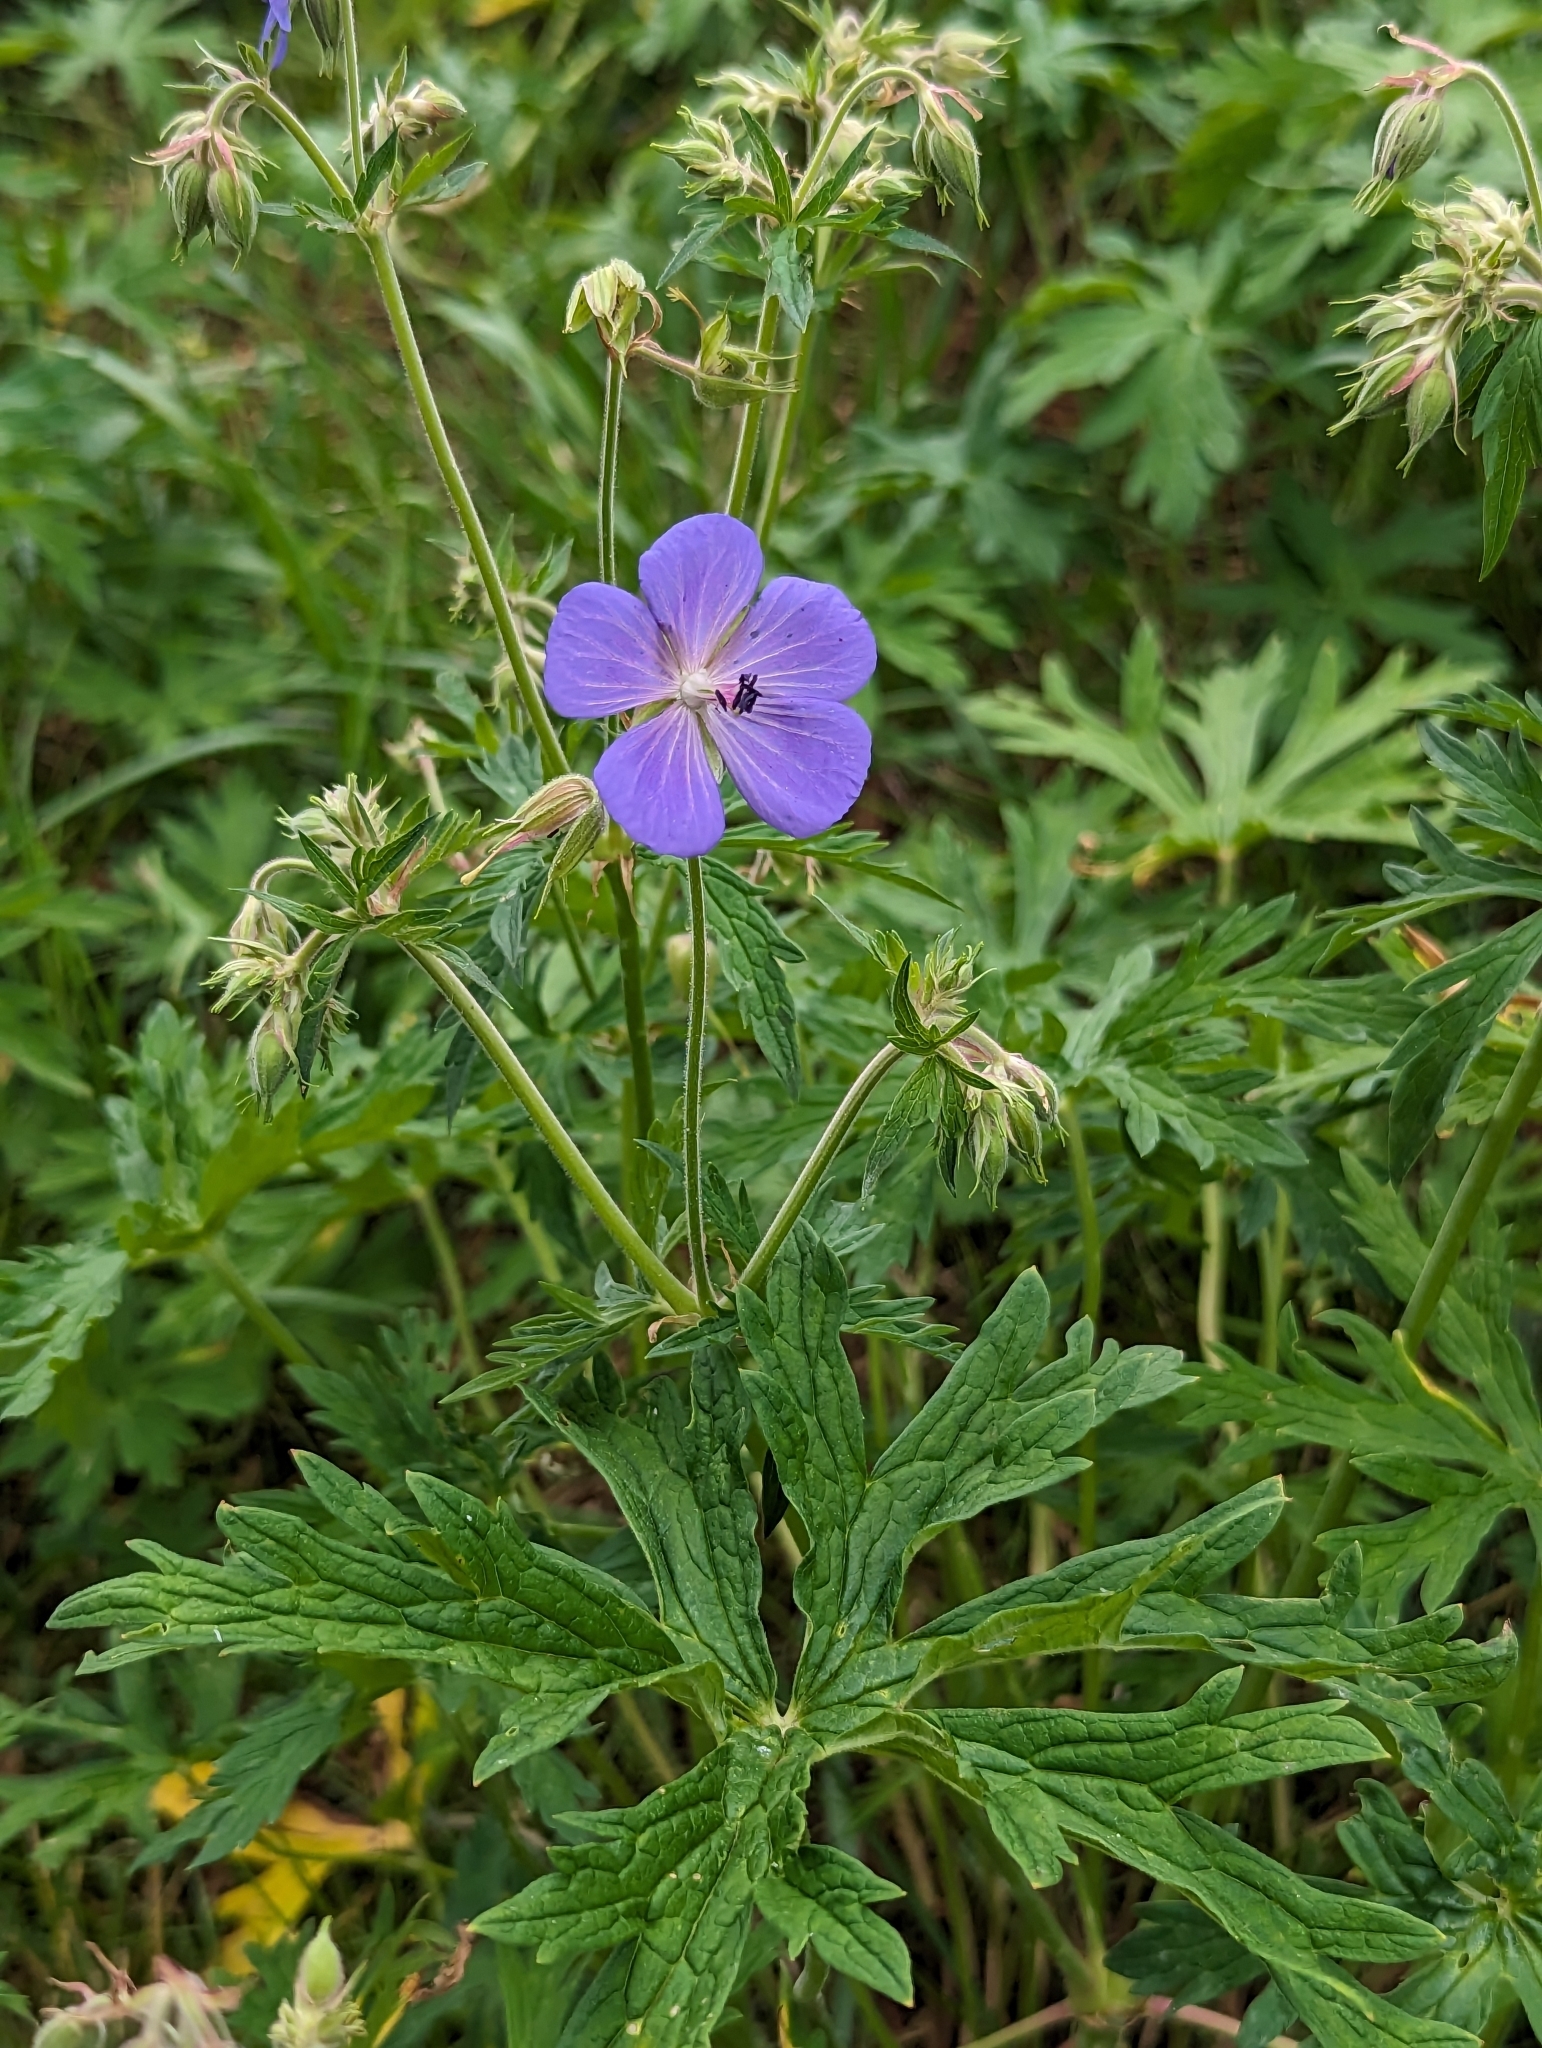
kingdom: Plantae
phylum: Tracheophyta
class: Magnoliopsida
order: Geraniales
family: Geraniaceae
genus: Geranium
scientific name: Geranium pratense
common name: Meadow crane's-bill
